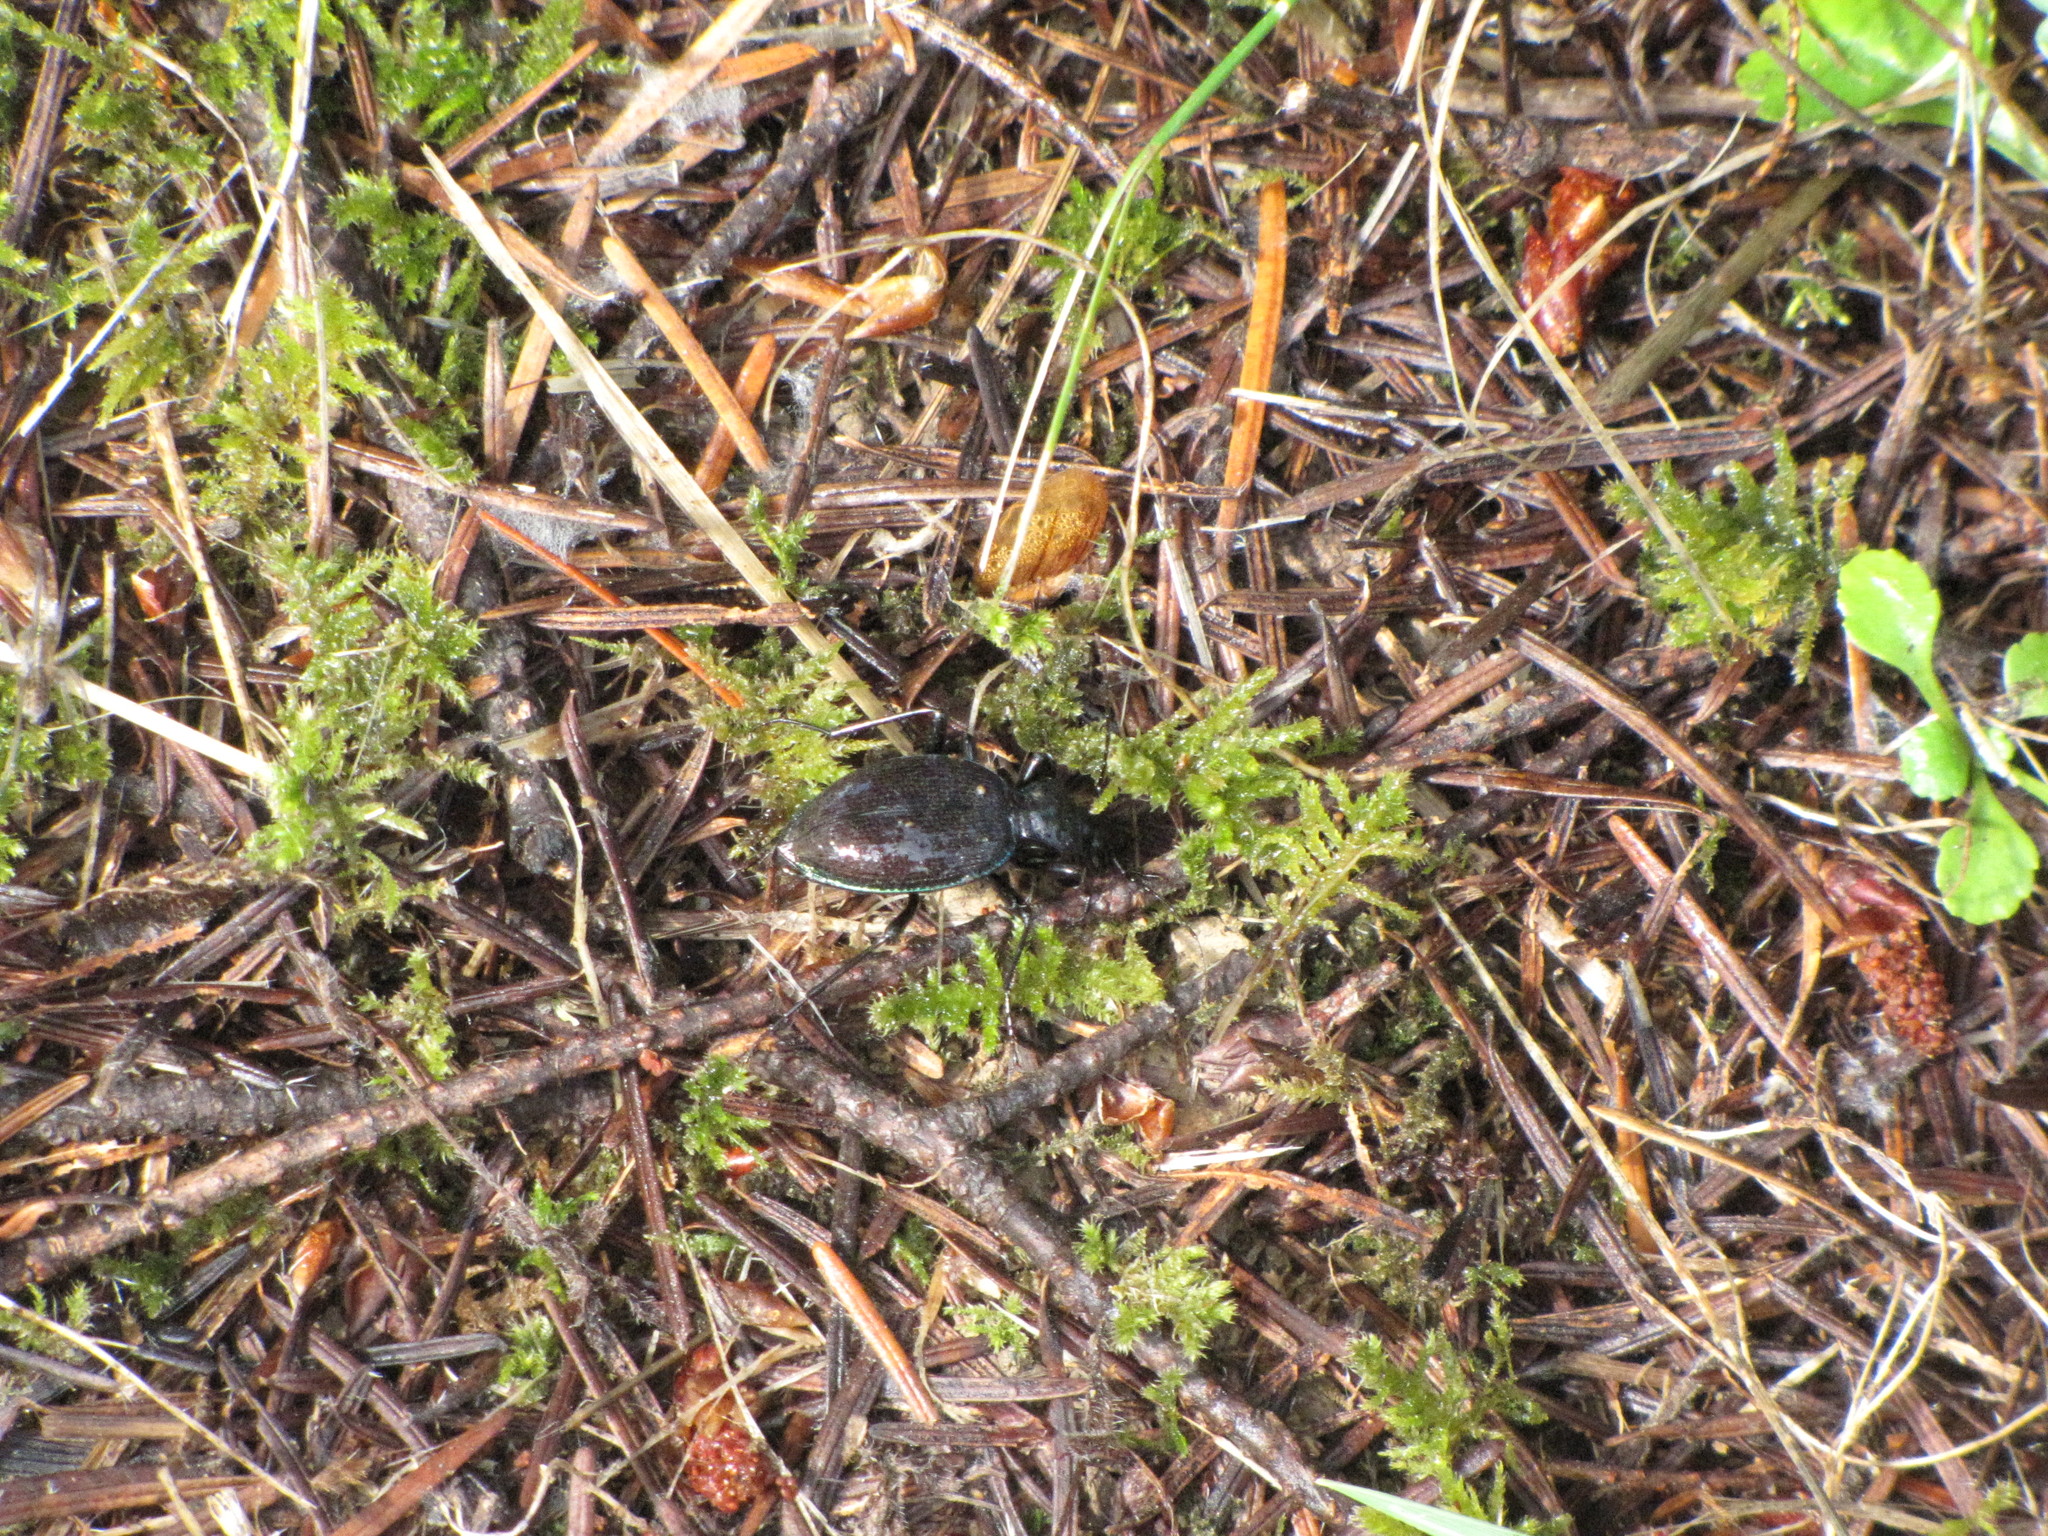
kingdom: Animalia
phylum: Arthropoda
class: Insecta
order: Coleoptera
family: Carabidae
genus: Scaphinotus
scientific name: Scaphinotus marginatus
